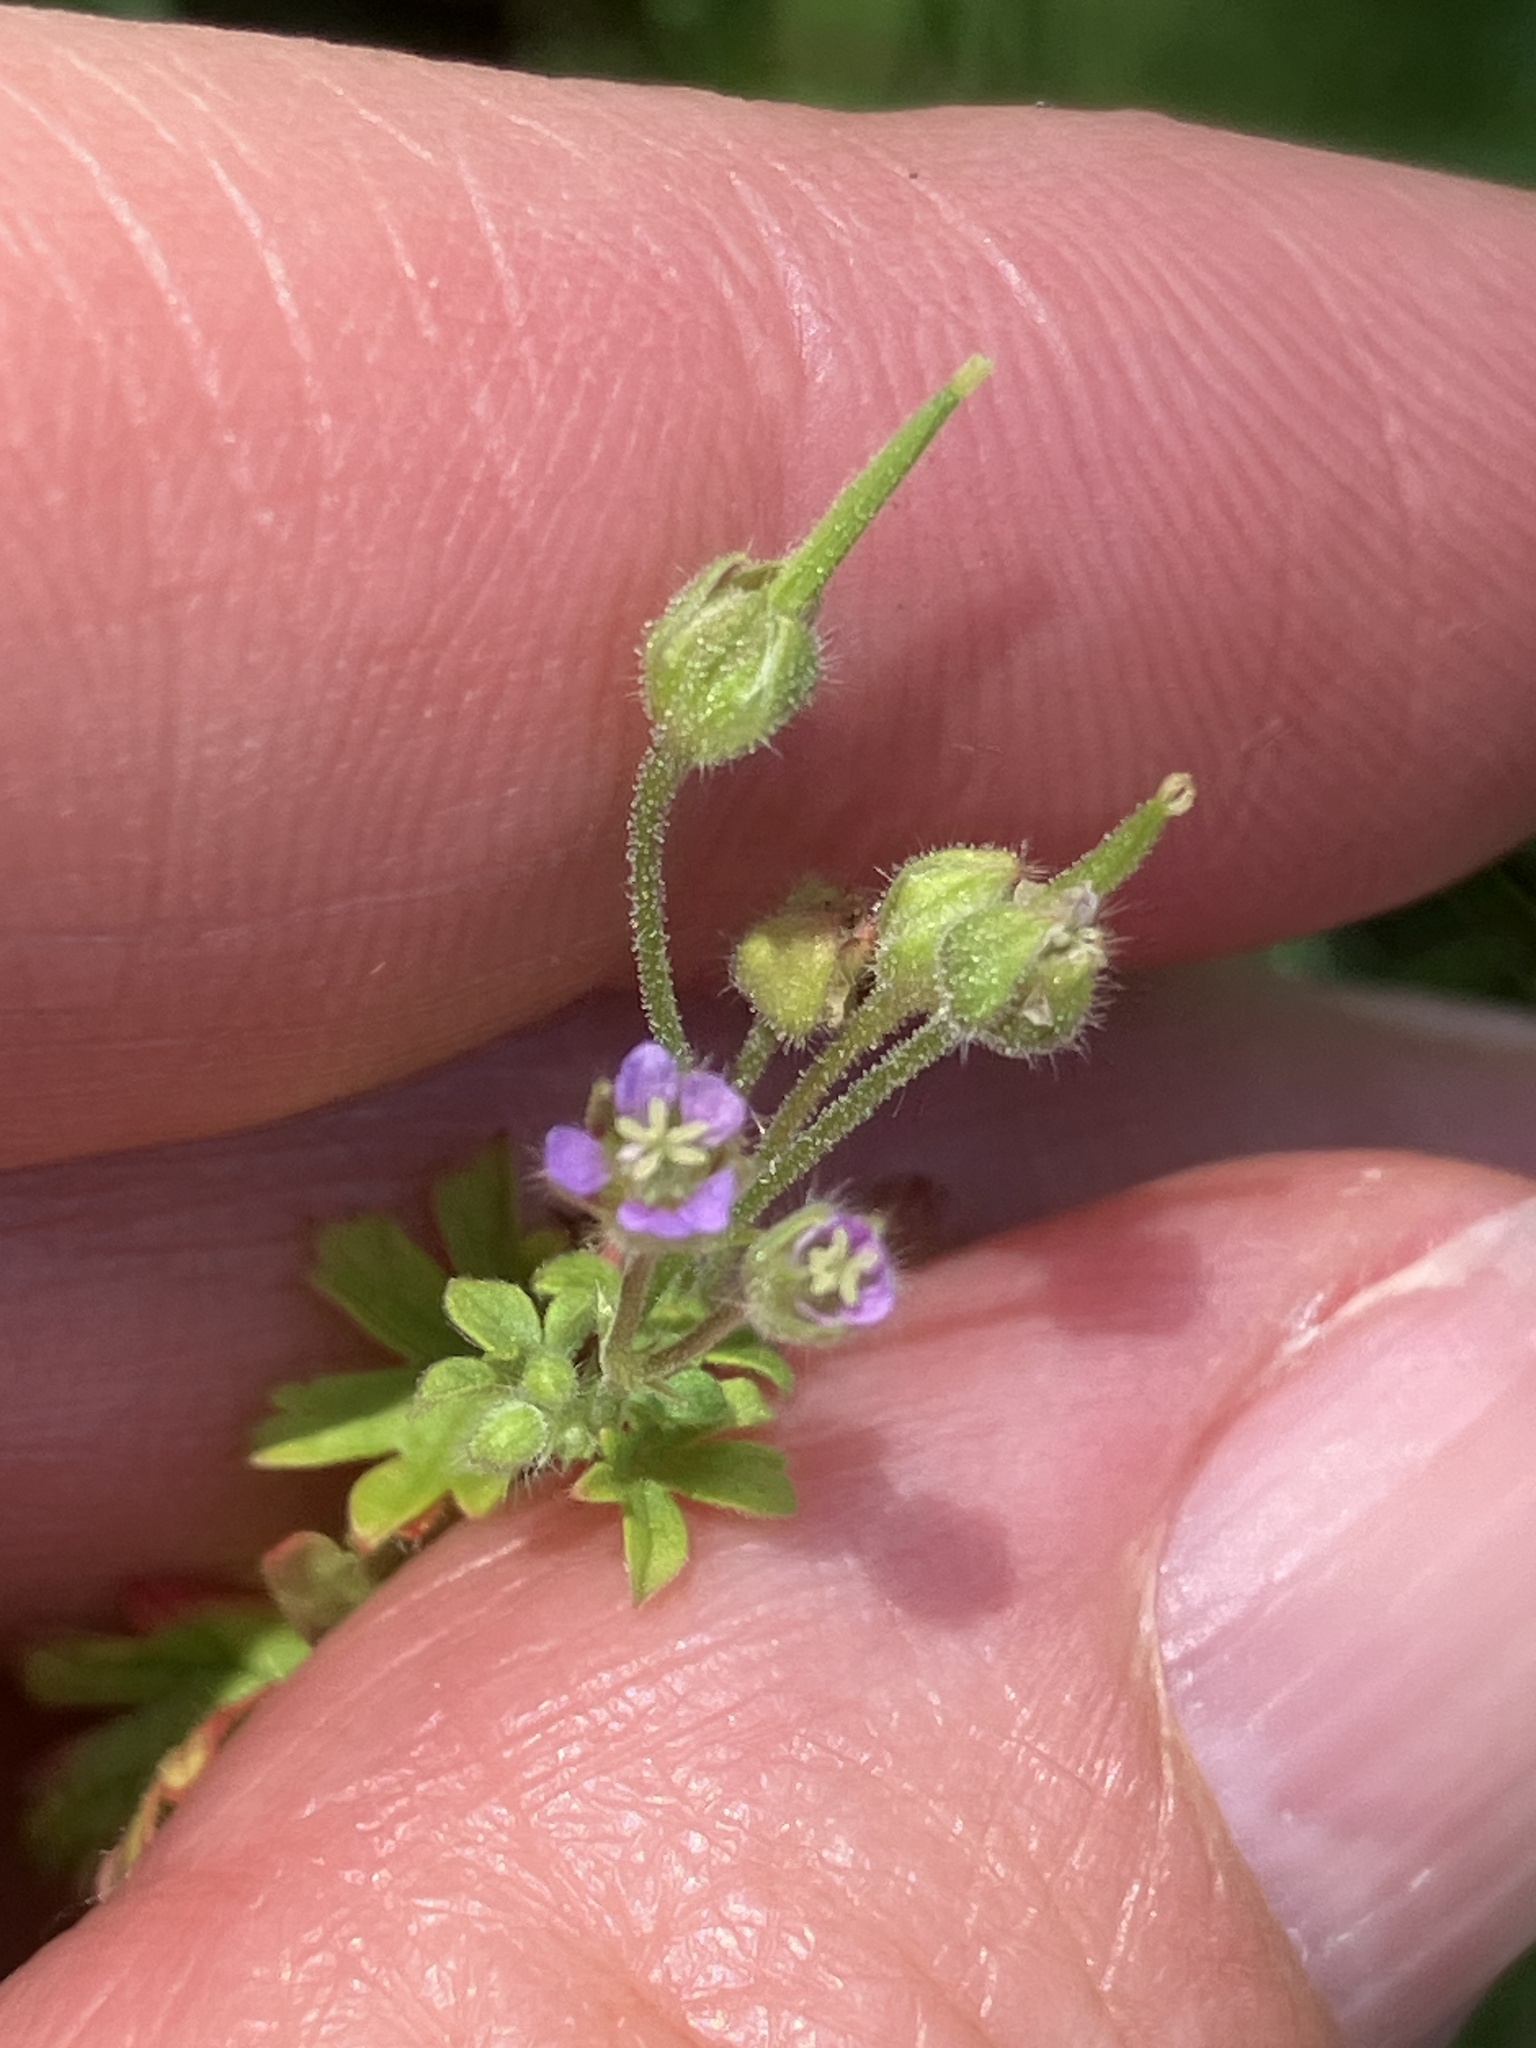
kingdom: Plantae
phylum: Tracheophyta
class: Magnoliopsida
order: Geraniales
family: Geraniaceae
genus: Geranium
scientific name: Geranium pusillum
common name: Small geranium
